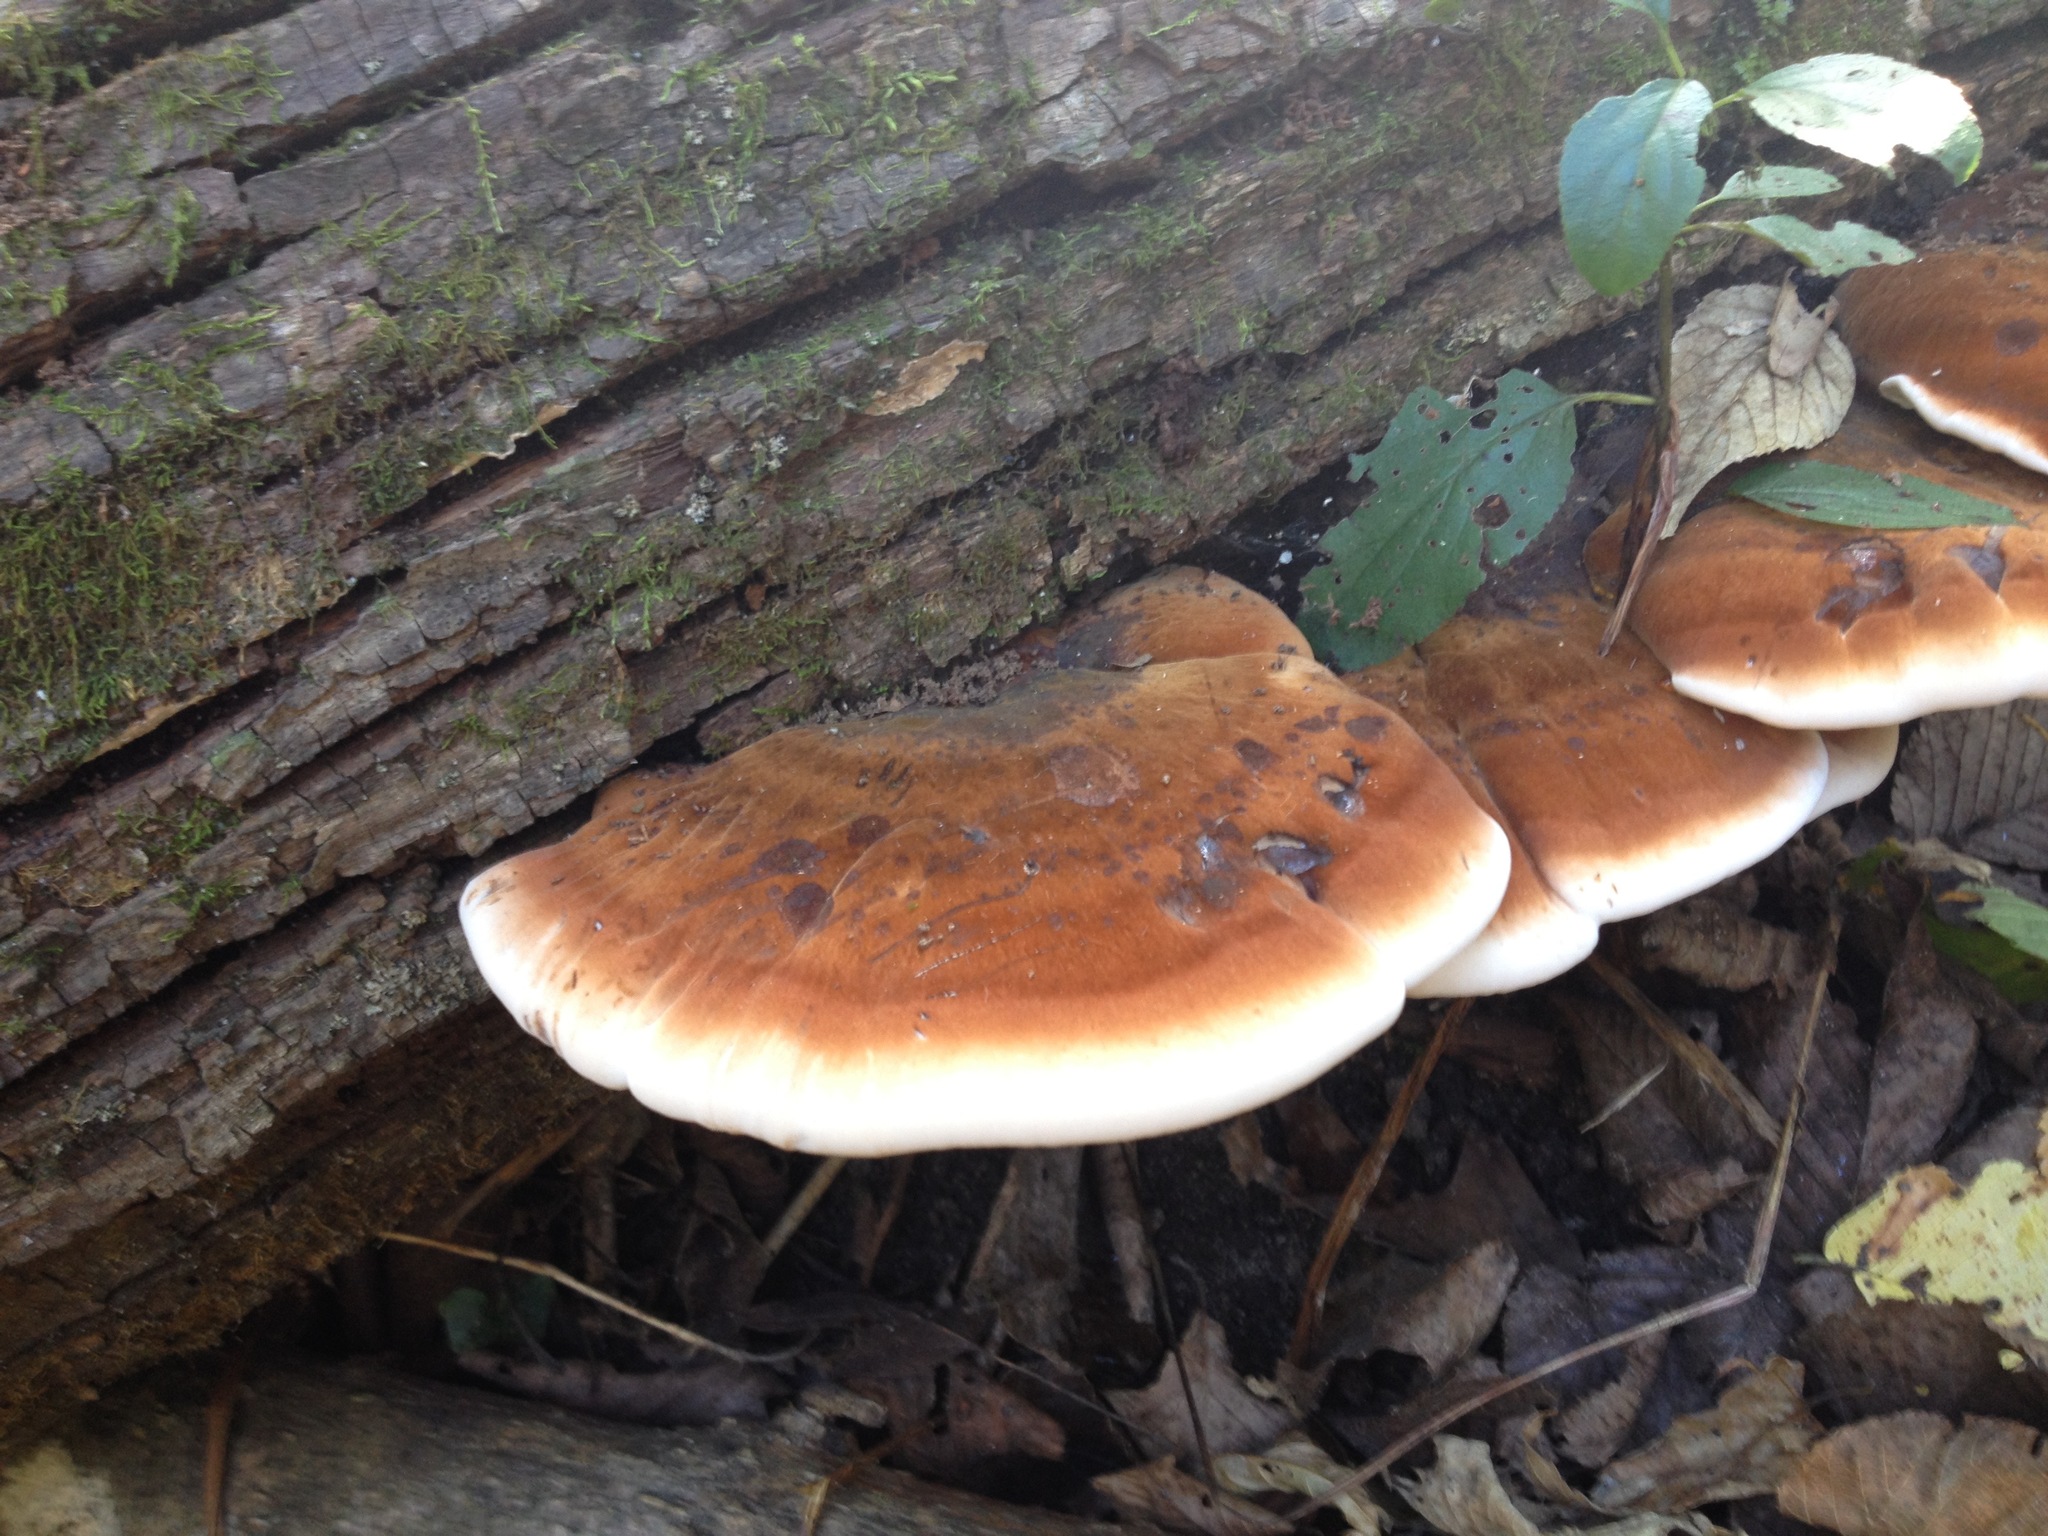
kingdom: Fungi
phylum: Basidiomycota
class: Agaricomycetes
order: Polyporales
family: Ischnodermataceae
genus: Ischnoderma
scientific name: Ischnoderma resinosum
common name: Resinous polypore
